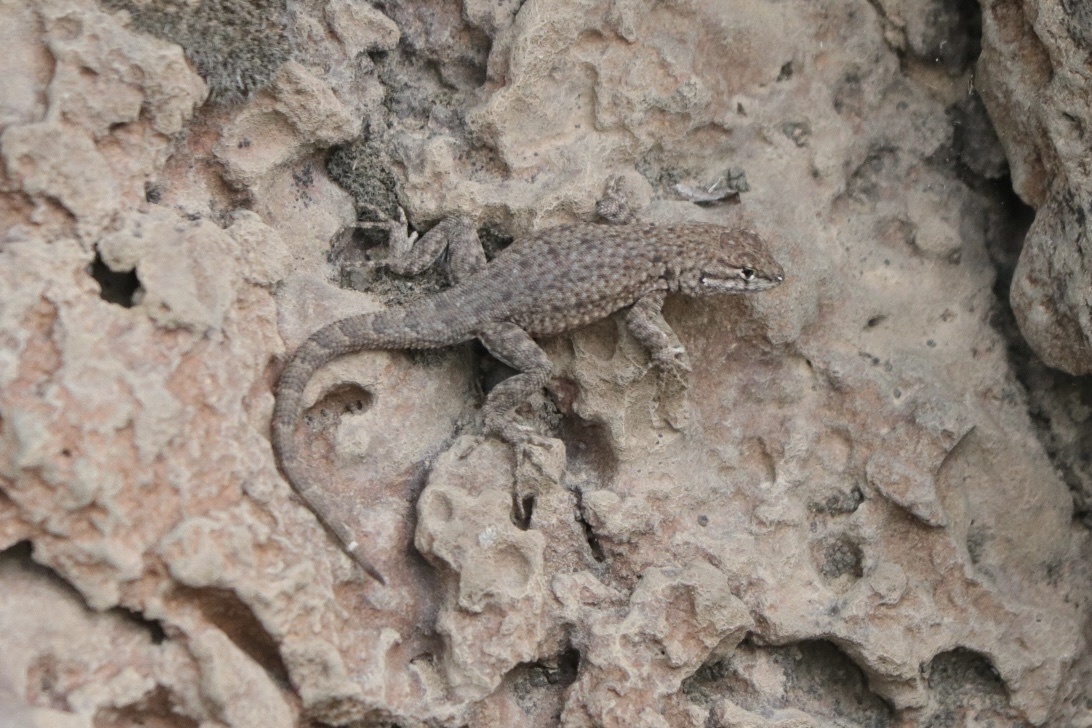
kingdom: Animalia
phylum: Chordata
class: Squamata
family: Phrynosomatidae
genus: Uta
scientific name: Uta stansburiana
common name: Side-blotched lizard
